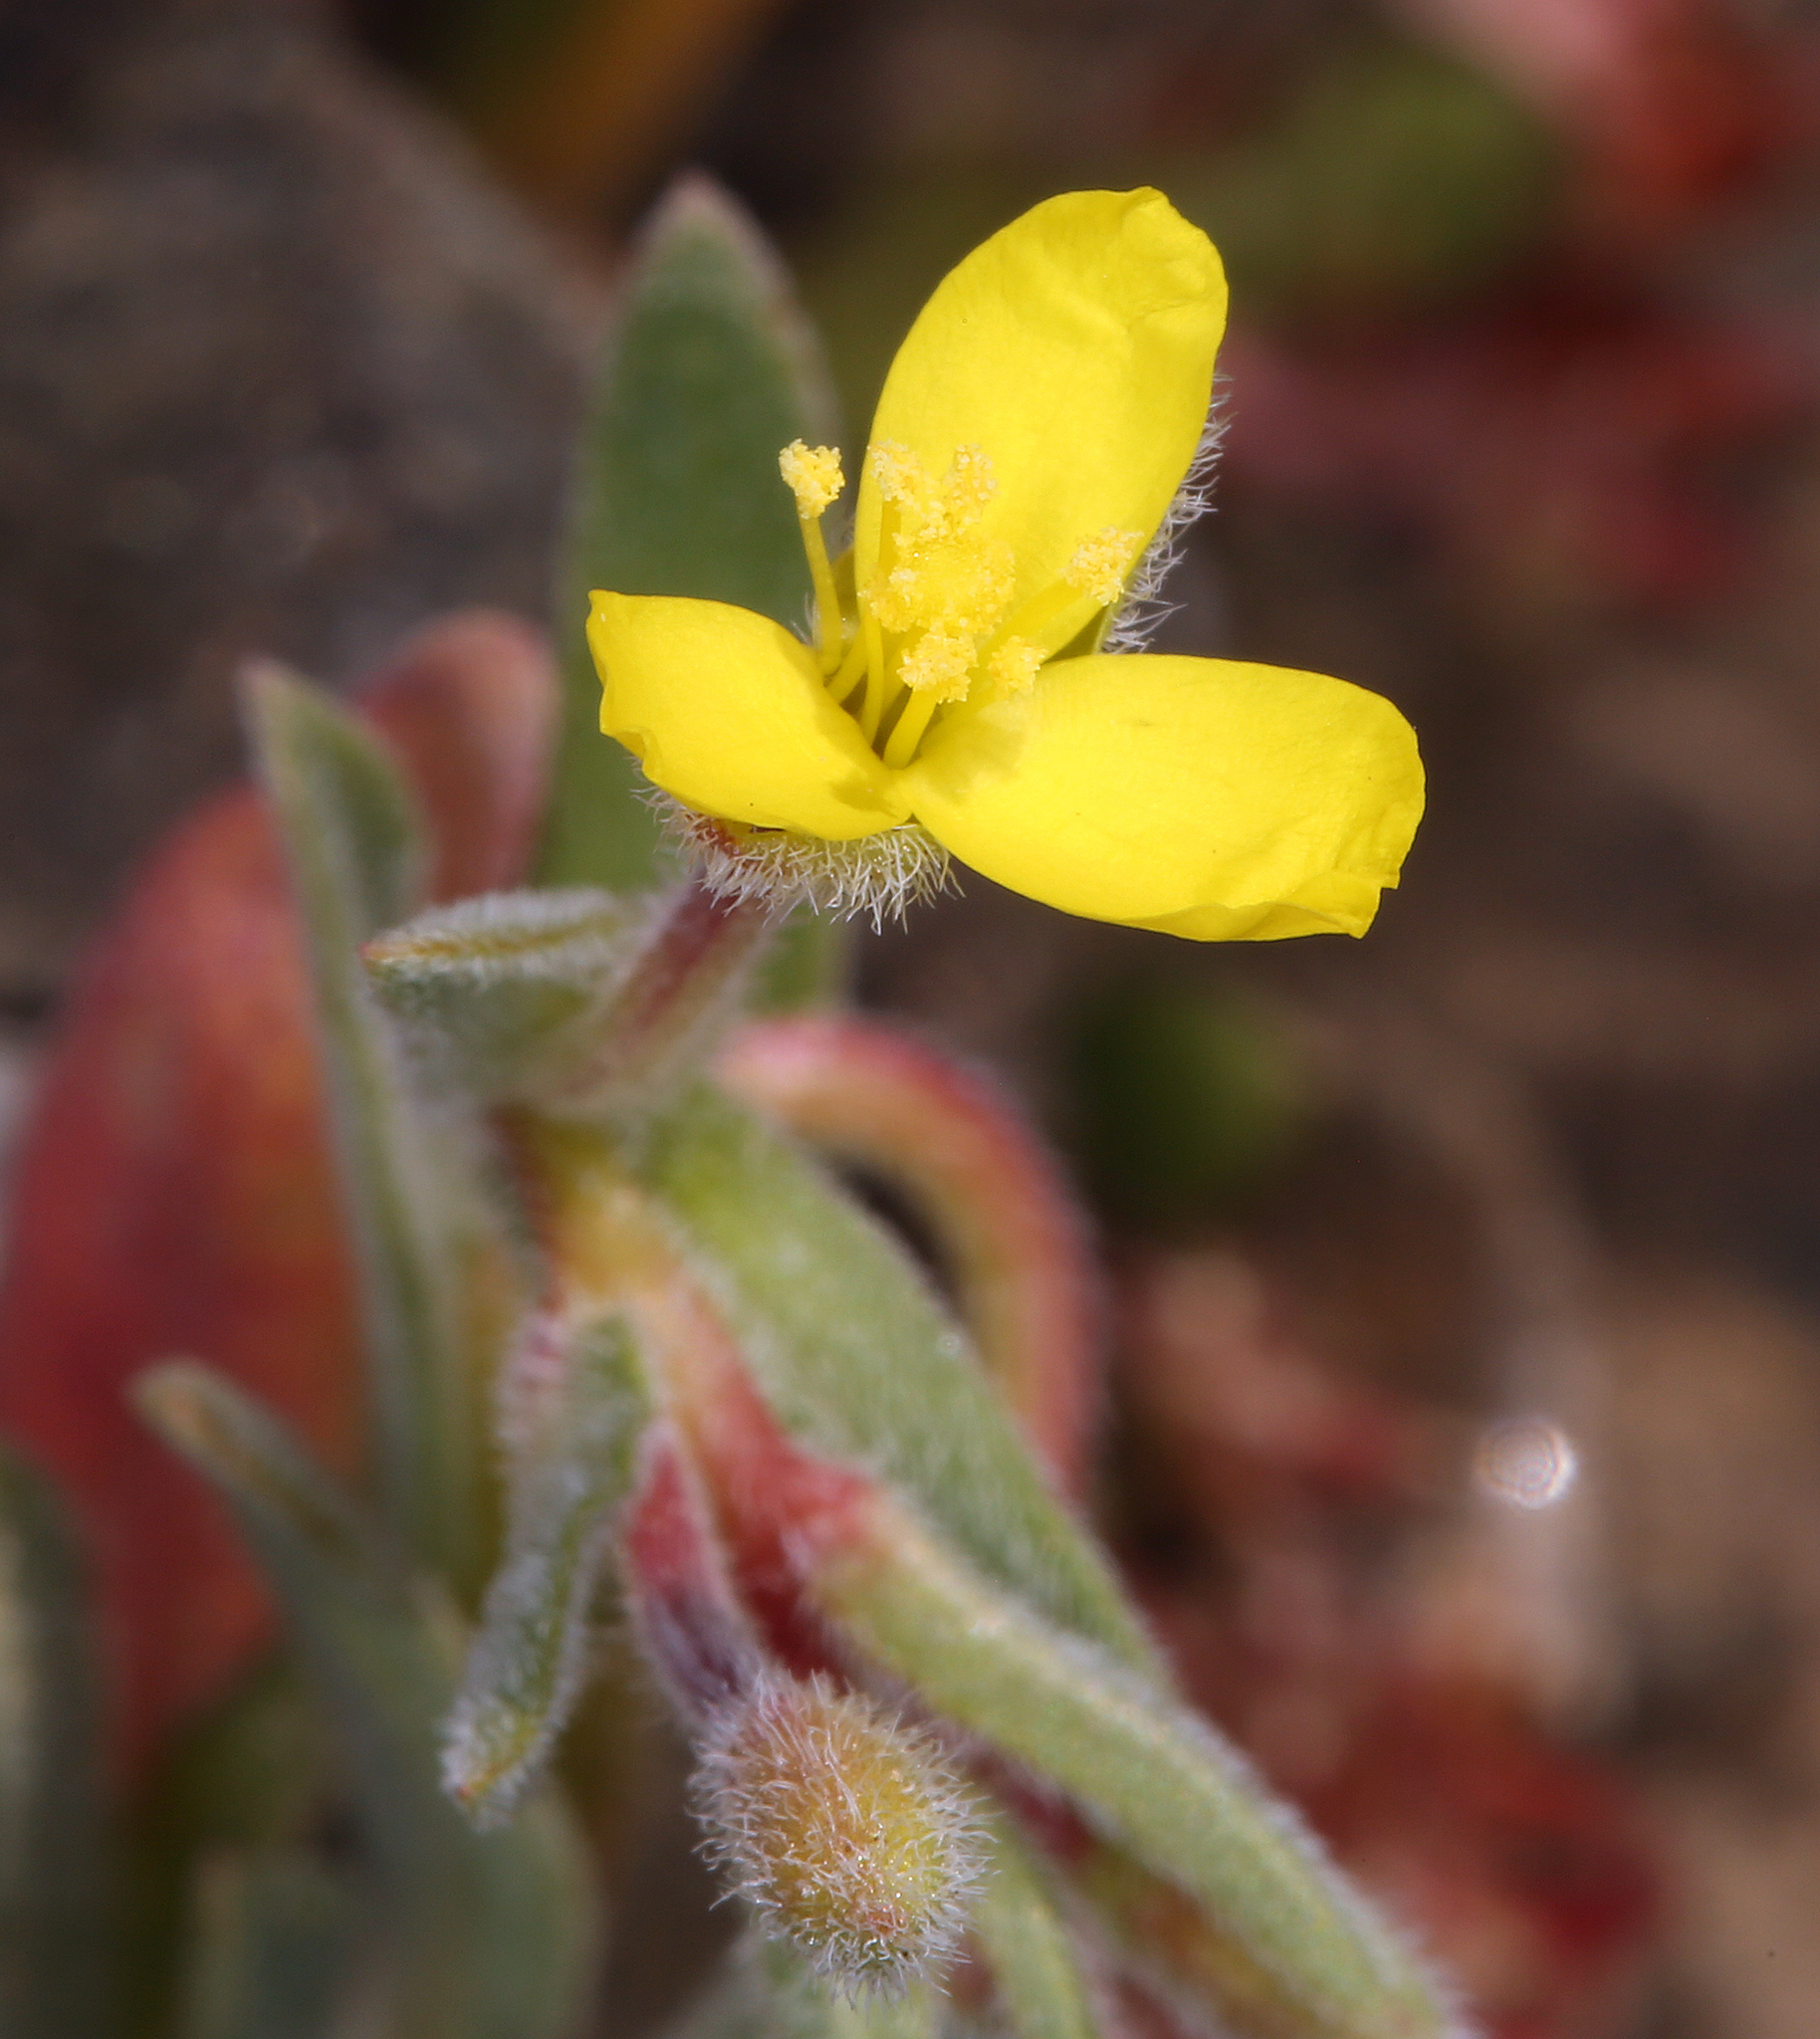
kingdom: Plantae
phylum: Tracheophyta
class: Magnoliopsida
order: Myrtales
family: Onagraceae
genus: Camissoniopsis
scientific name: Camissoniopsis pallida
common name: Paleyellow suncup
